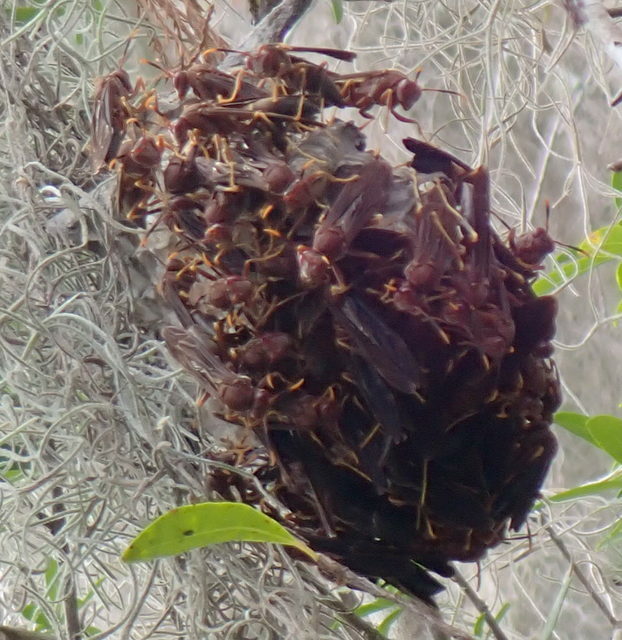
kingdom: Animalia
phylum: Arthropoda
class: Insecta
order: Hymenoptera
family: Eumenidae
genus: Polistes
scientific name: Polistes annularis
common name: Ringed paper wasp
